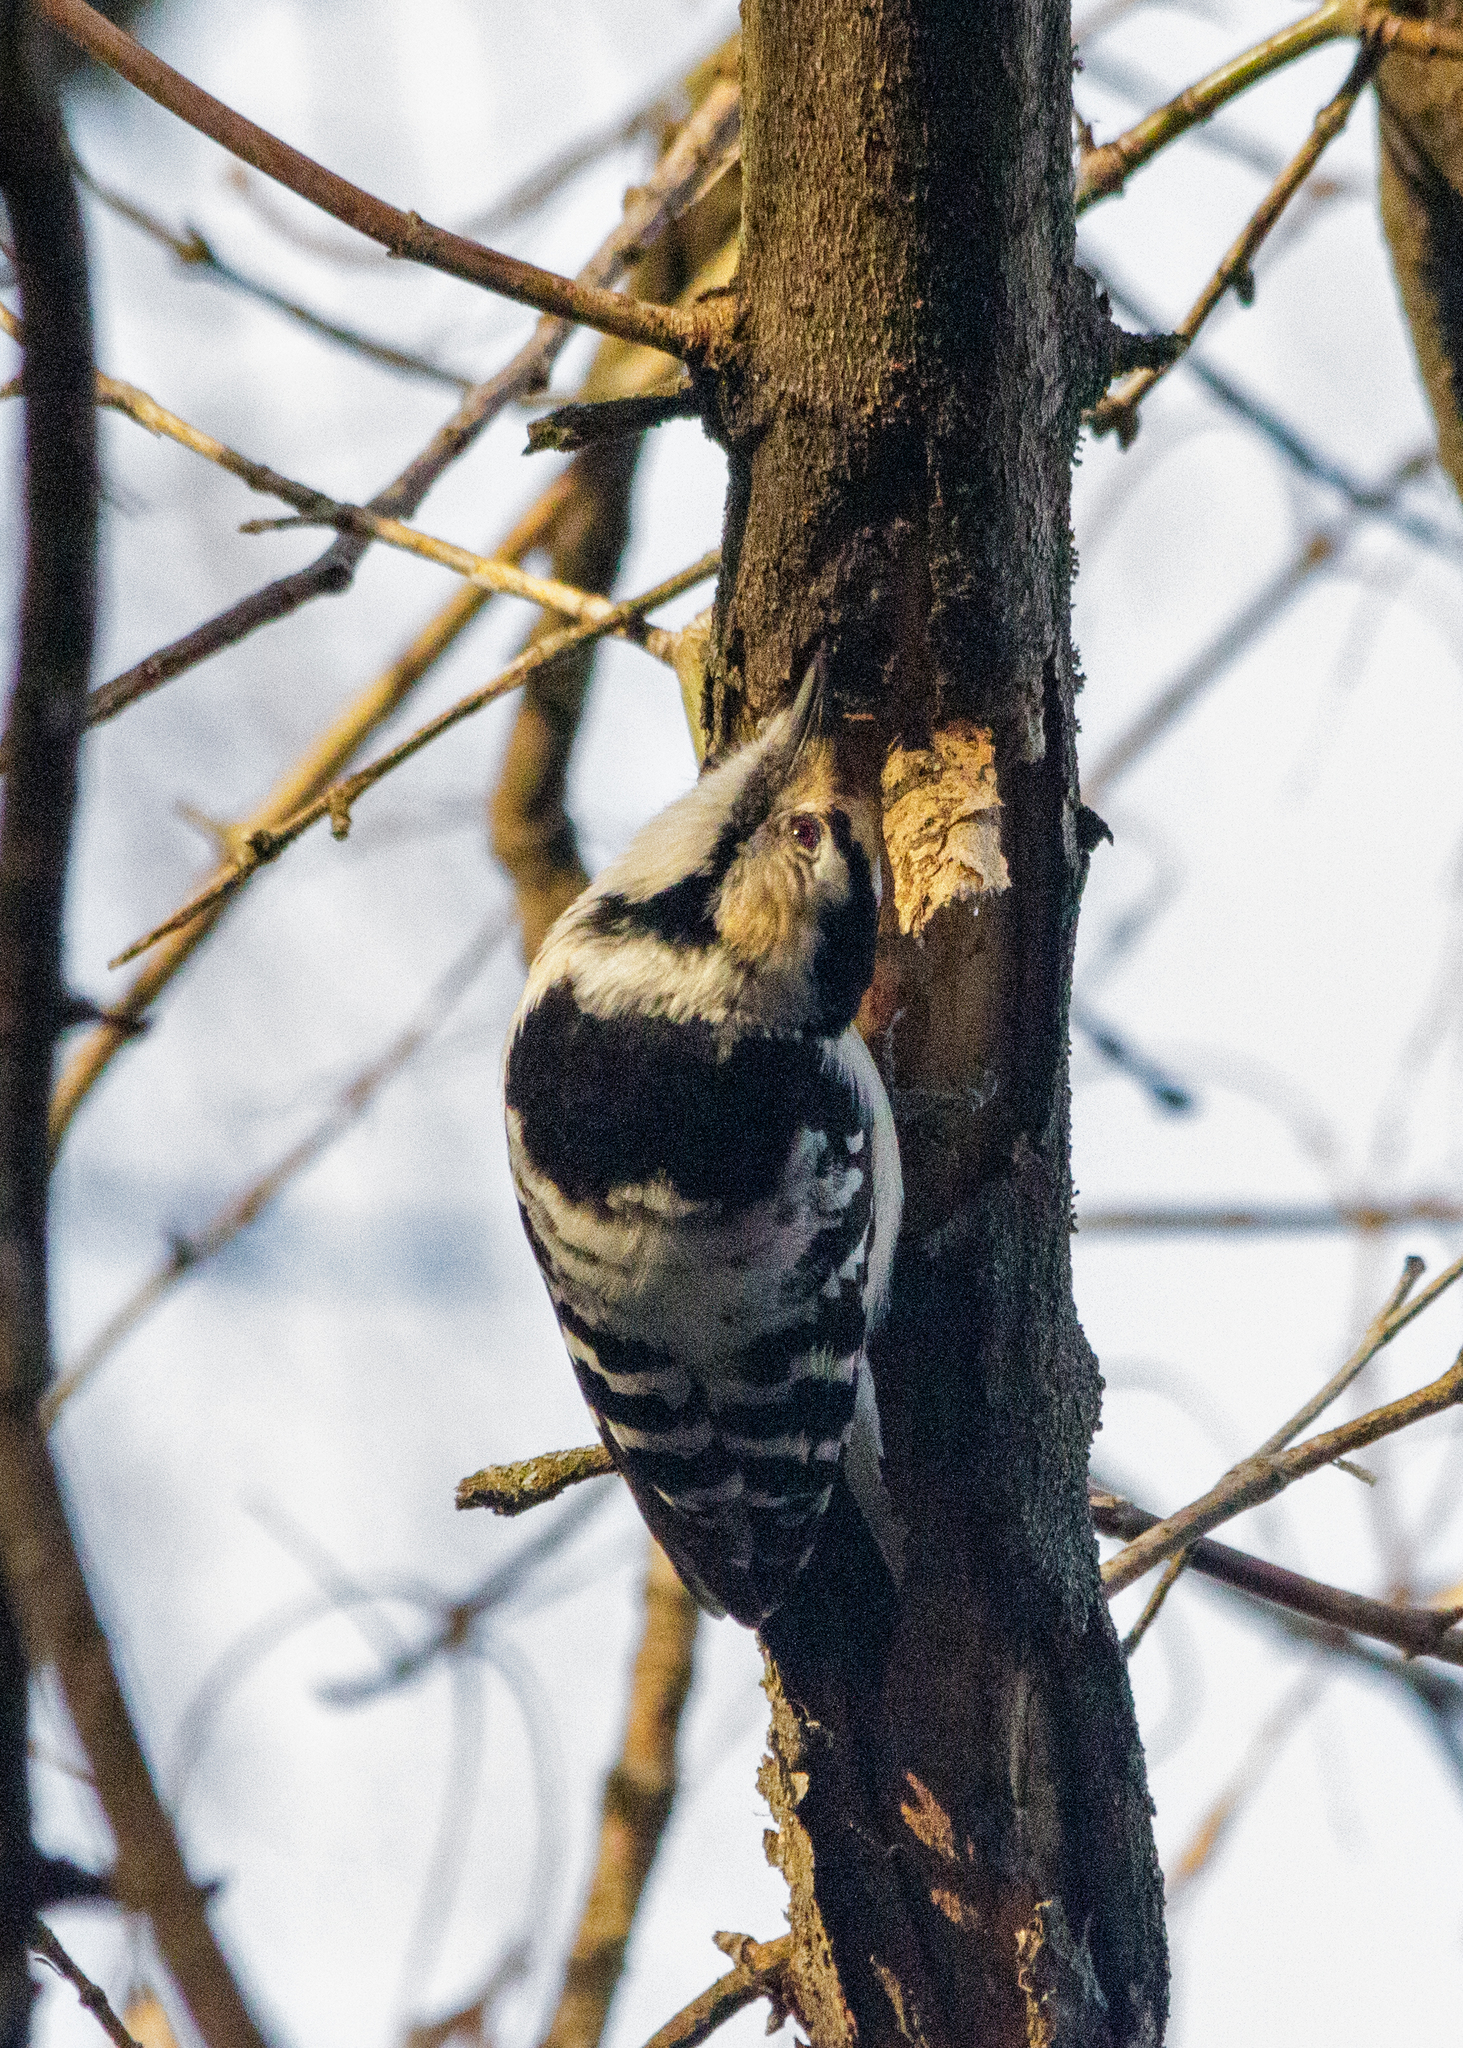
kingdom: Animalia
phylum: Chordata
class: Aves
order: Piciformes
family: Picidae
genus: Dryobates
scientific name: Dryobates minor
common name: Lesser spotted woodpecker
